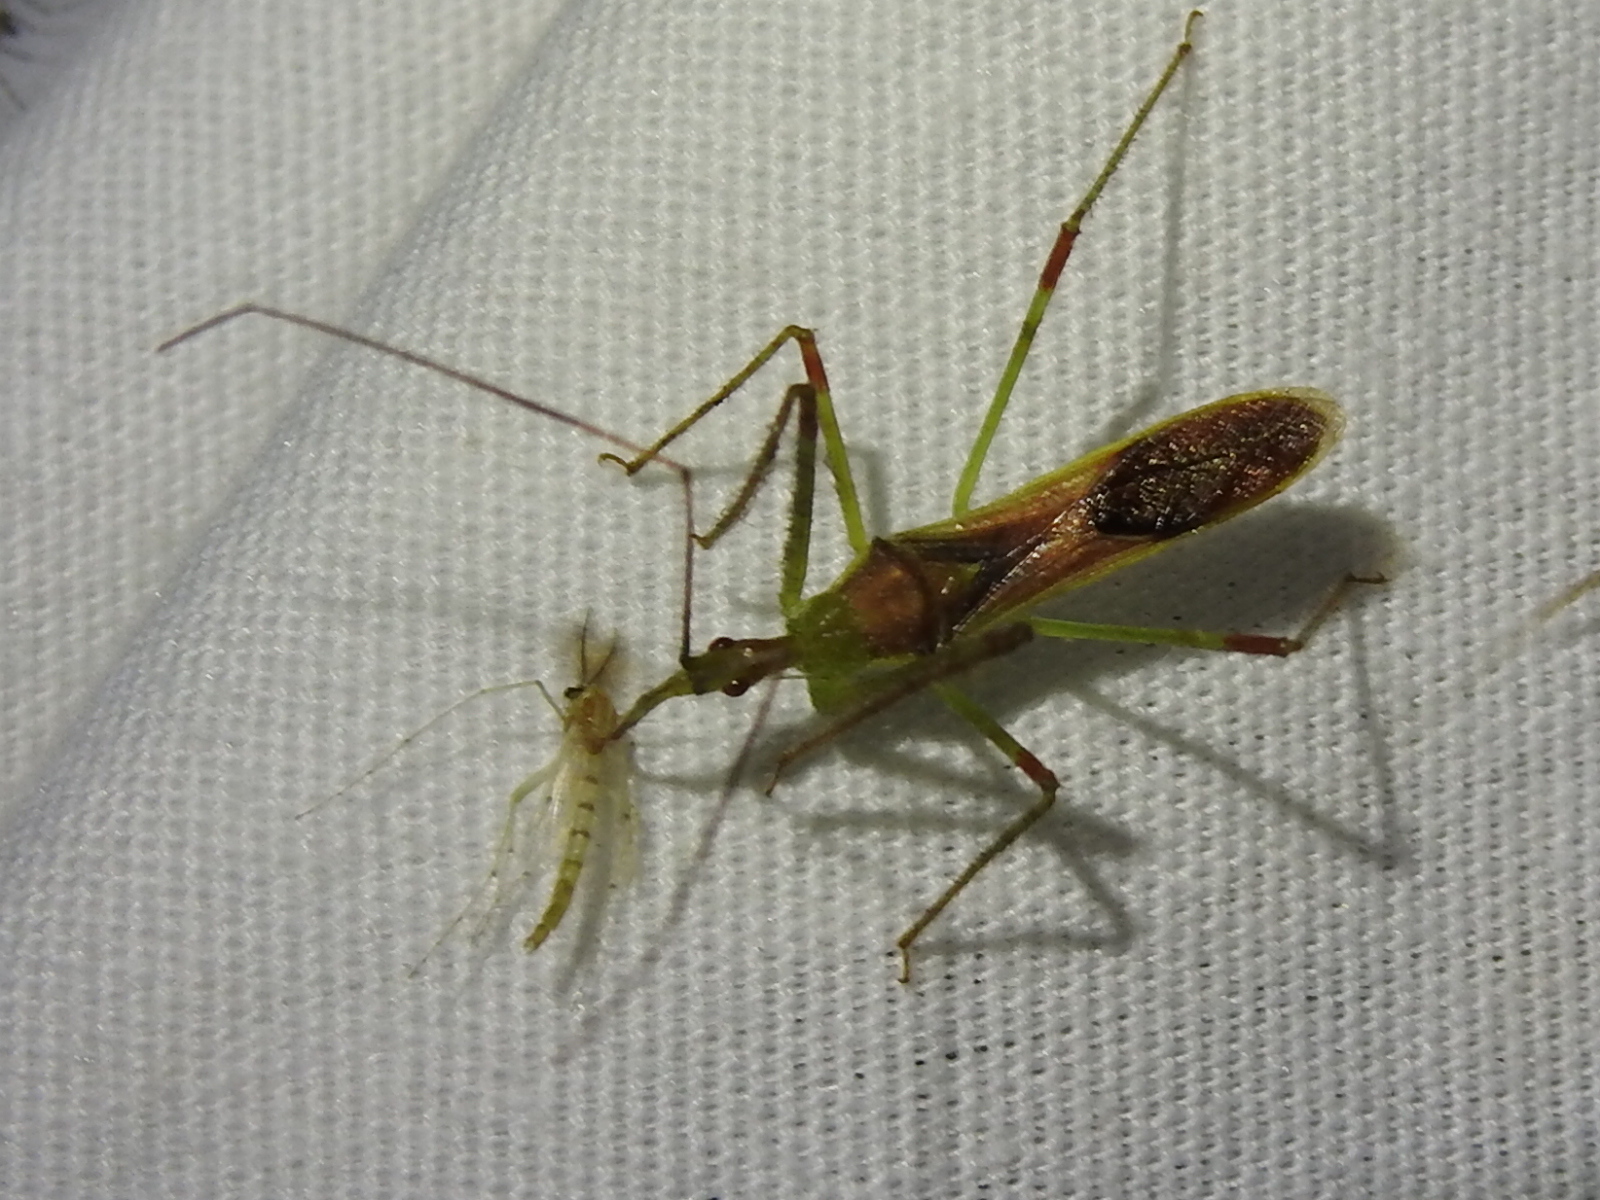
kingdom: Animalia
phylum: Arthropoda
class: Insecta
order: Hemiptera
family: Reduviidae
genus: Zelus
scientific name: Zelus luridus
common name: Pale green assassin bug
